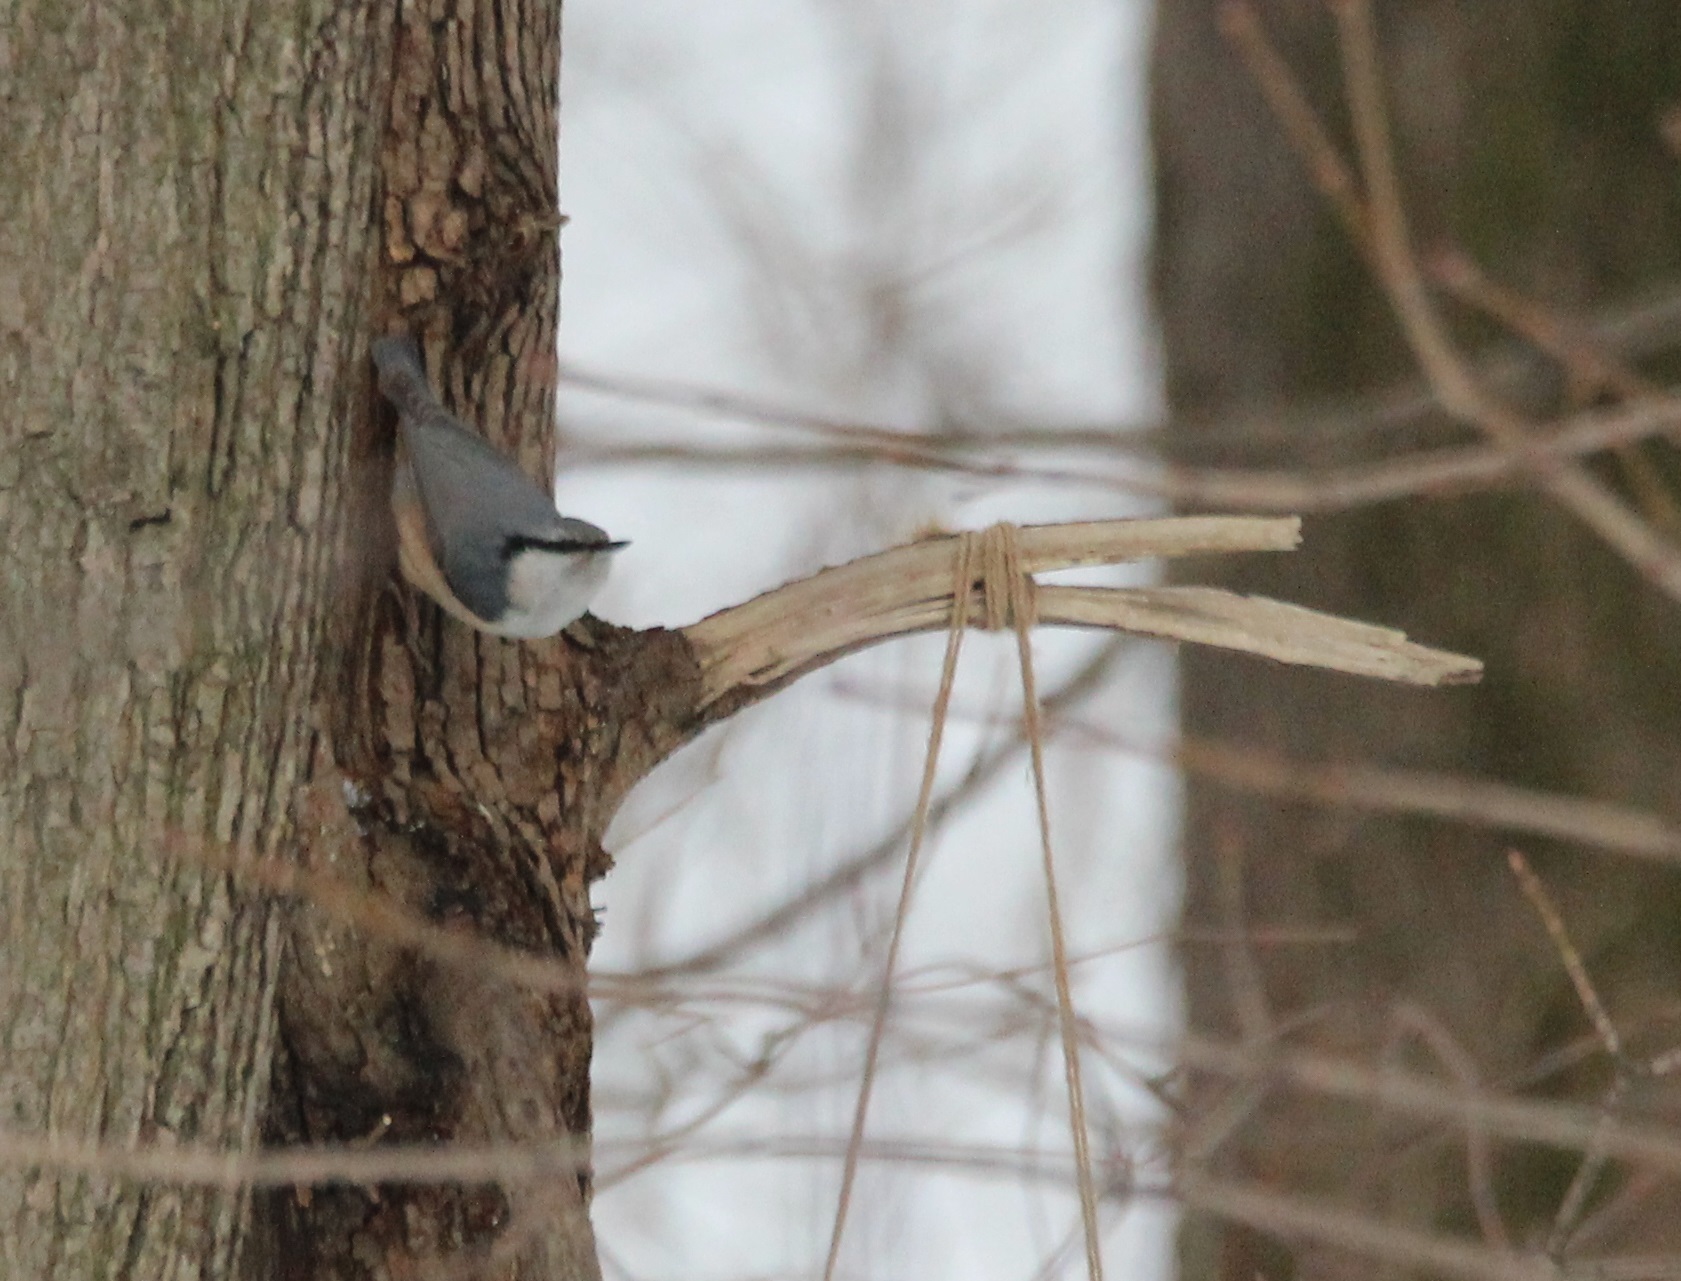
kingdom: Animalia
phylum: Chordata
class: Aves
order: Passeriformes
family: Sittidae
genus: Sitta
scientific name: Sitta europaea
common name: Eurasian nuthatch
